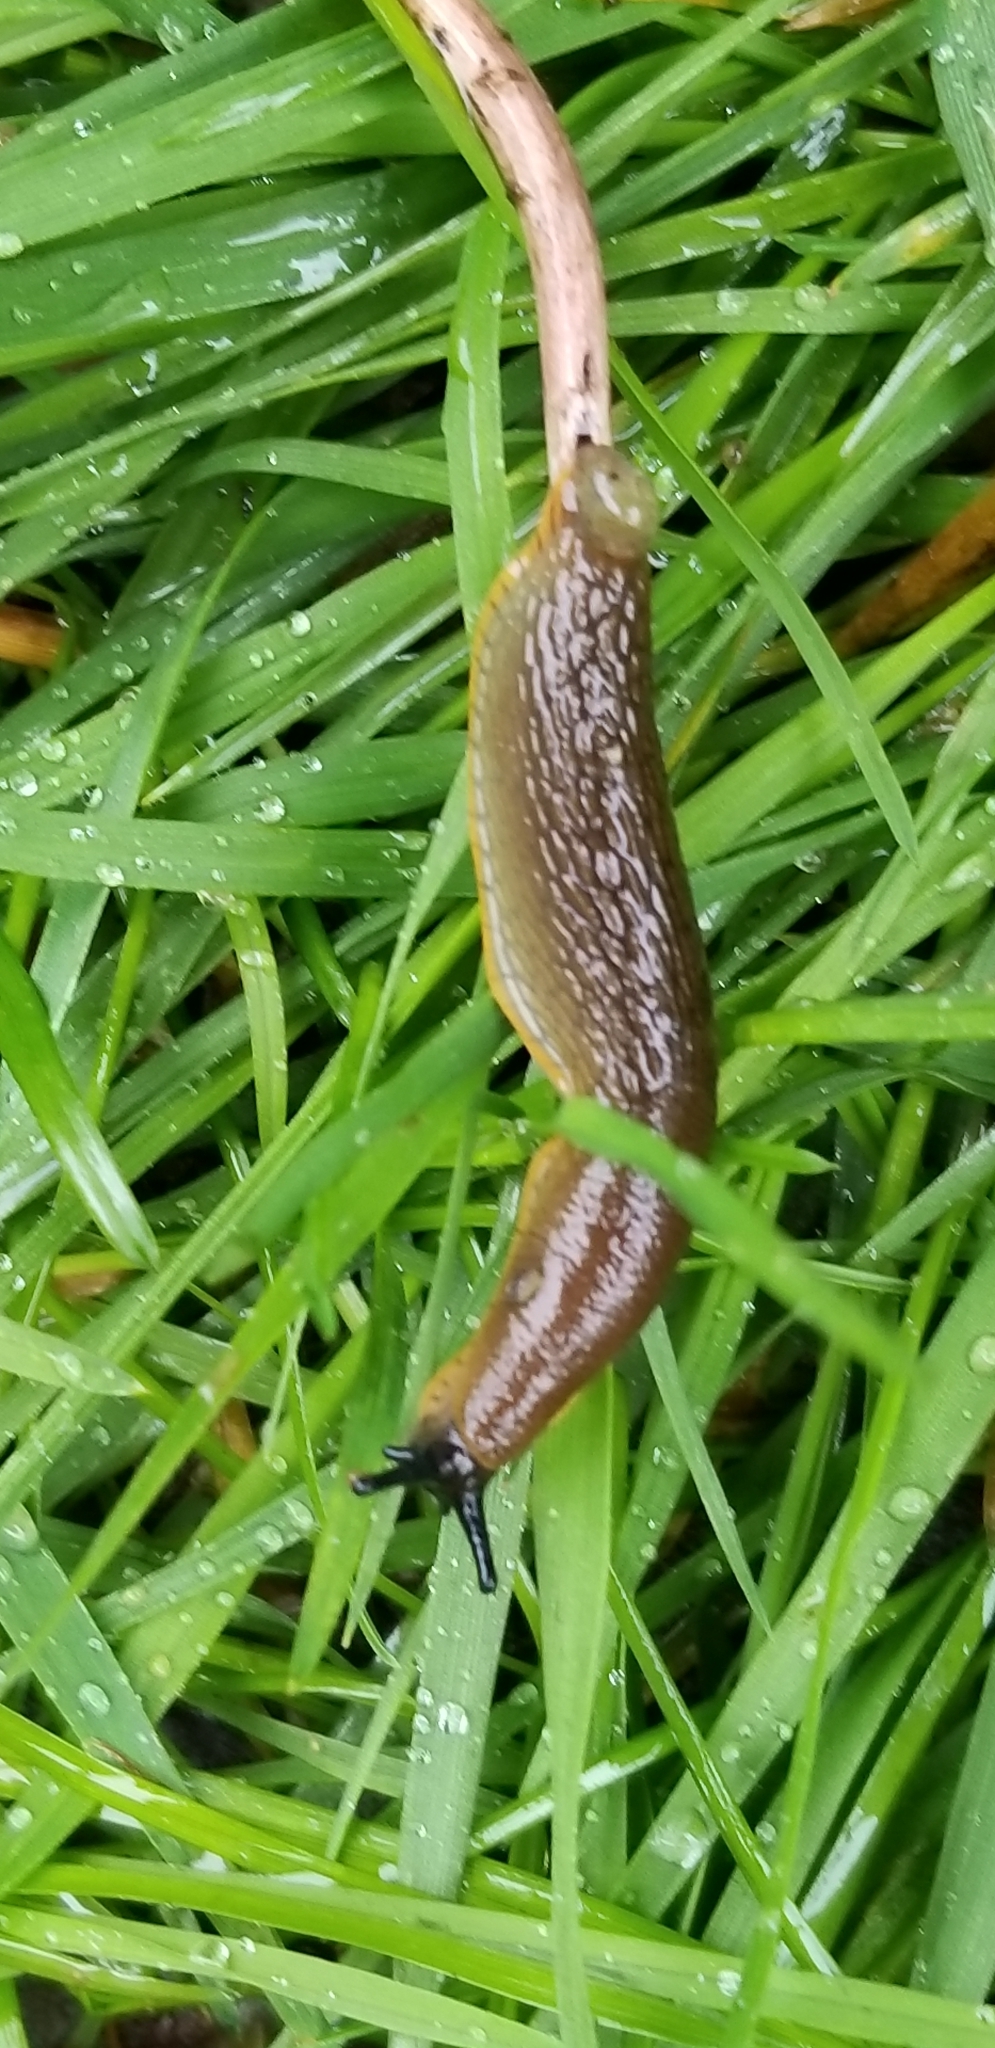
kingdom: Animalia
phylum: Mollusca
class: Gastropoda
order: Stylommatophora
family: Arionidae
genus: Arion
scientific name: Arion
